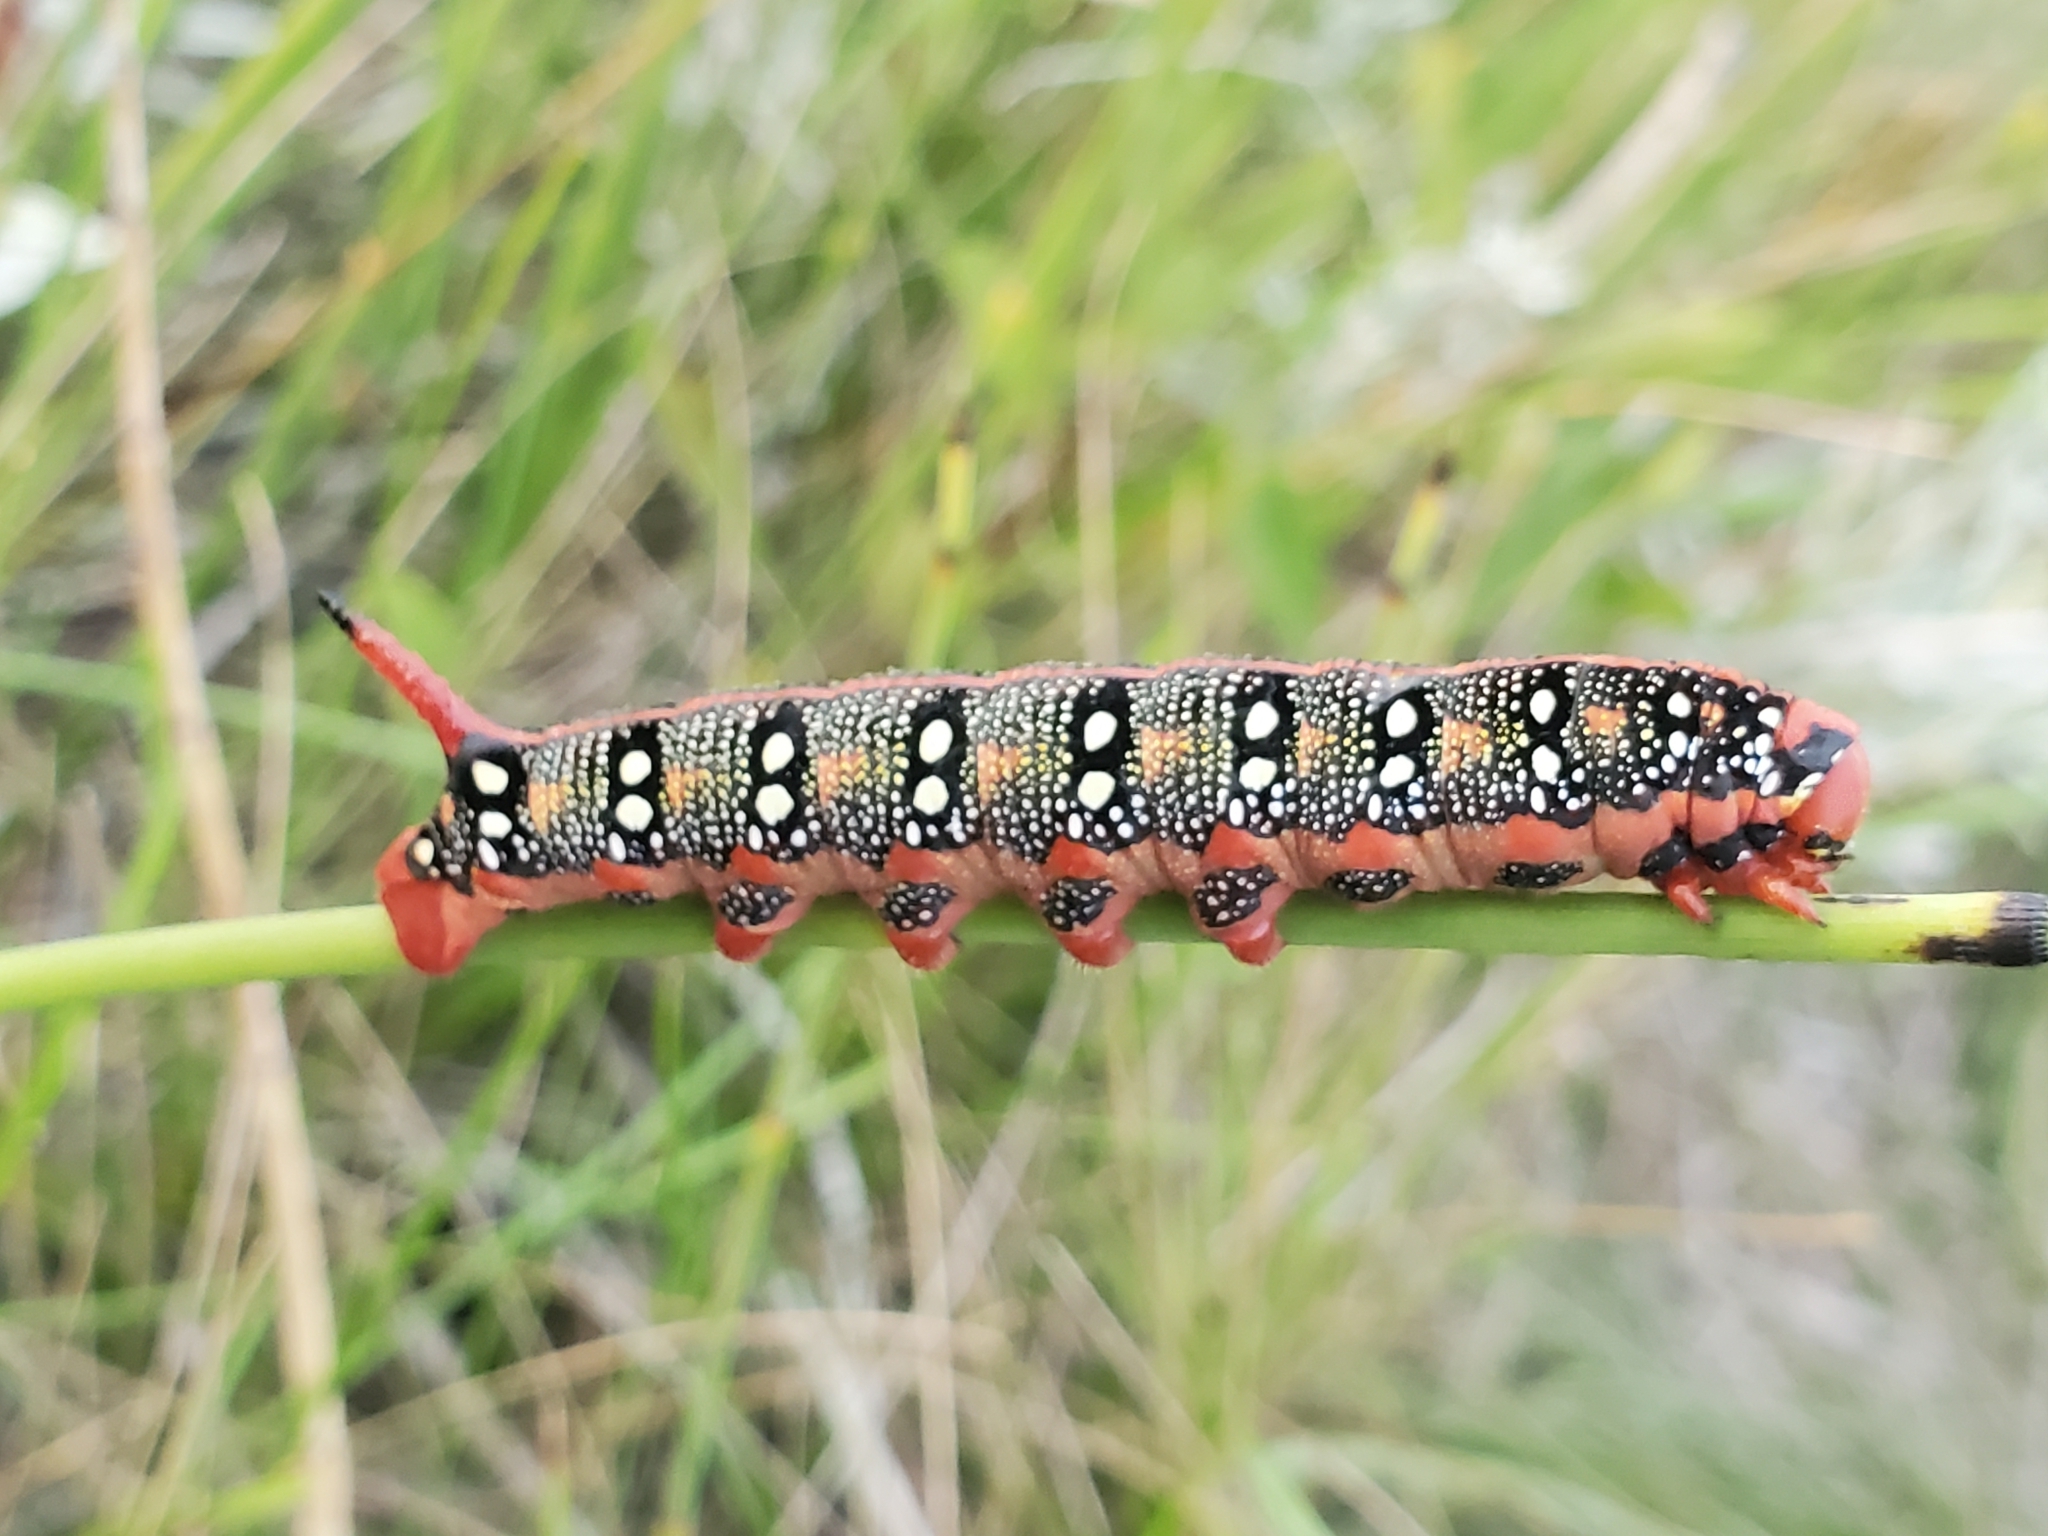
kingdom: Animalia
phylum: Arthropoda
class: Insecta
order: Lepidoptera
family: Sphingidae
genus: Hyles
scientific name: Hyles euphorbiae
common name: Spurge hawk-moth
